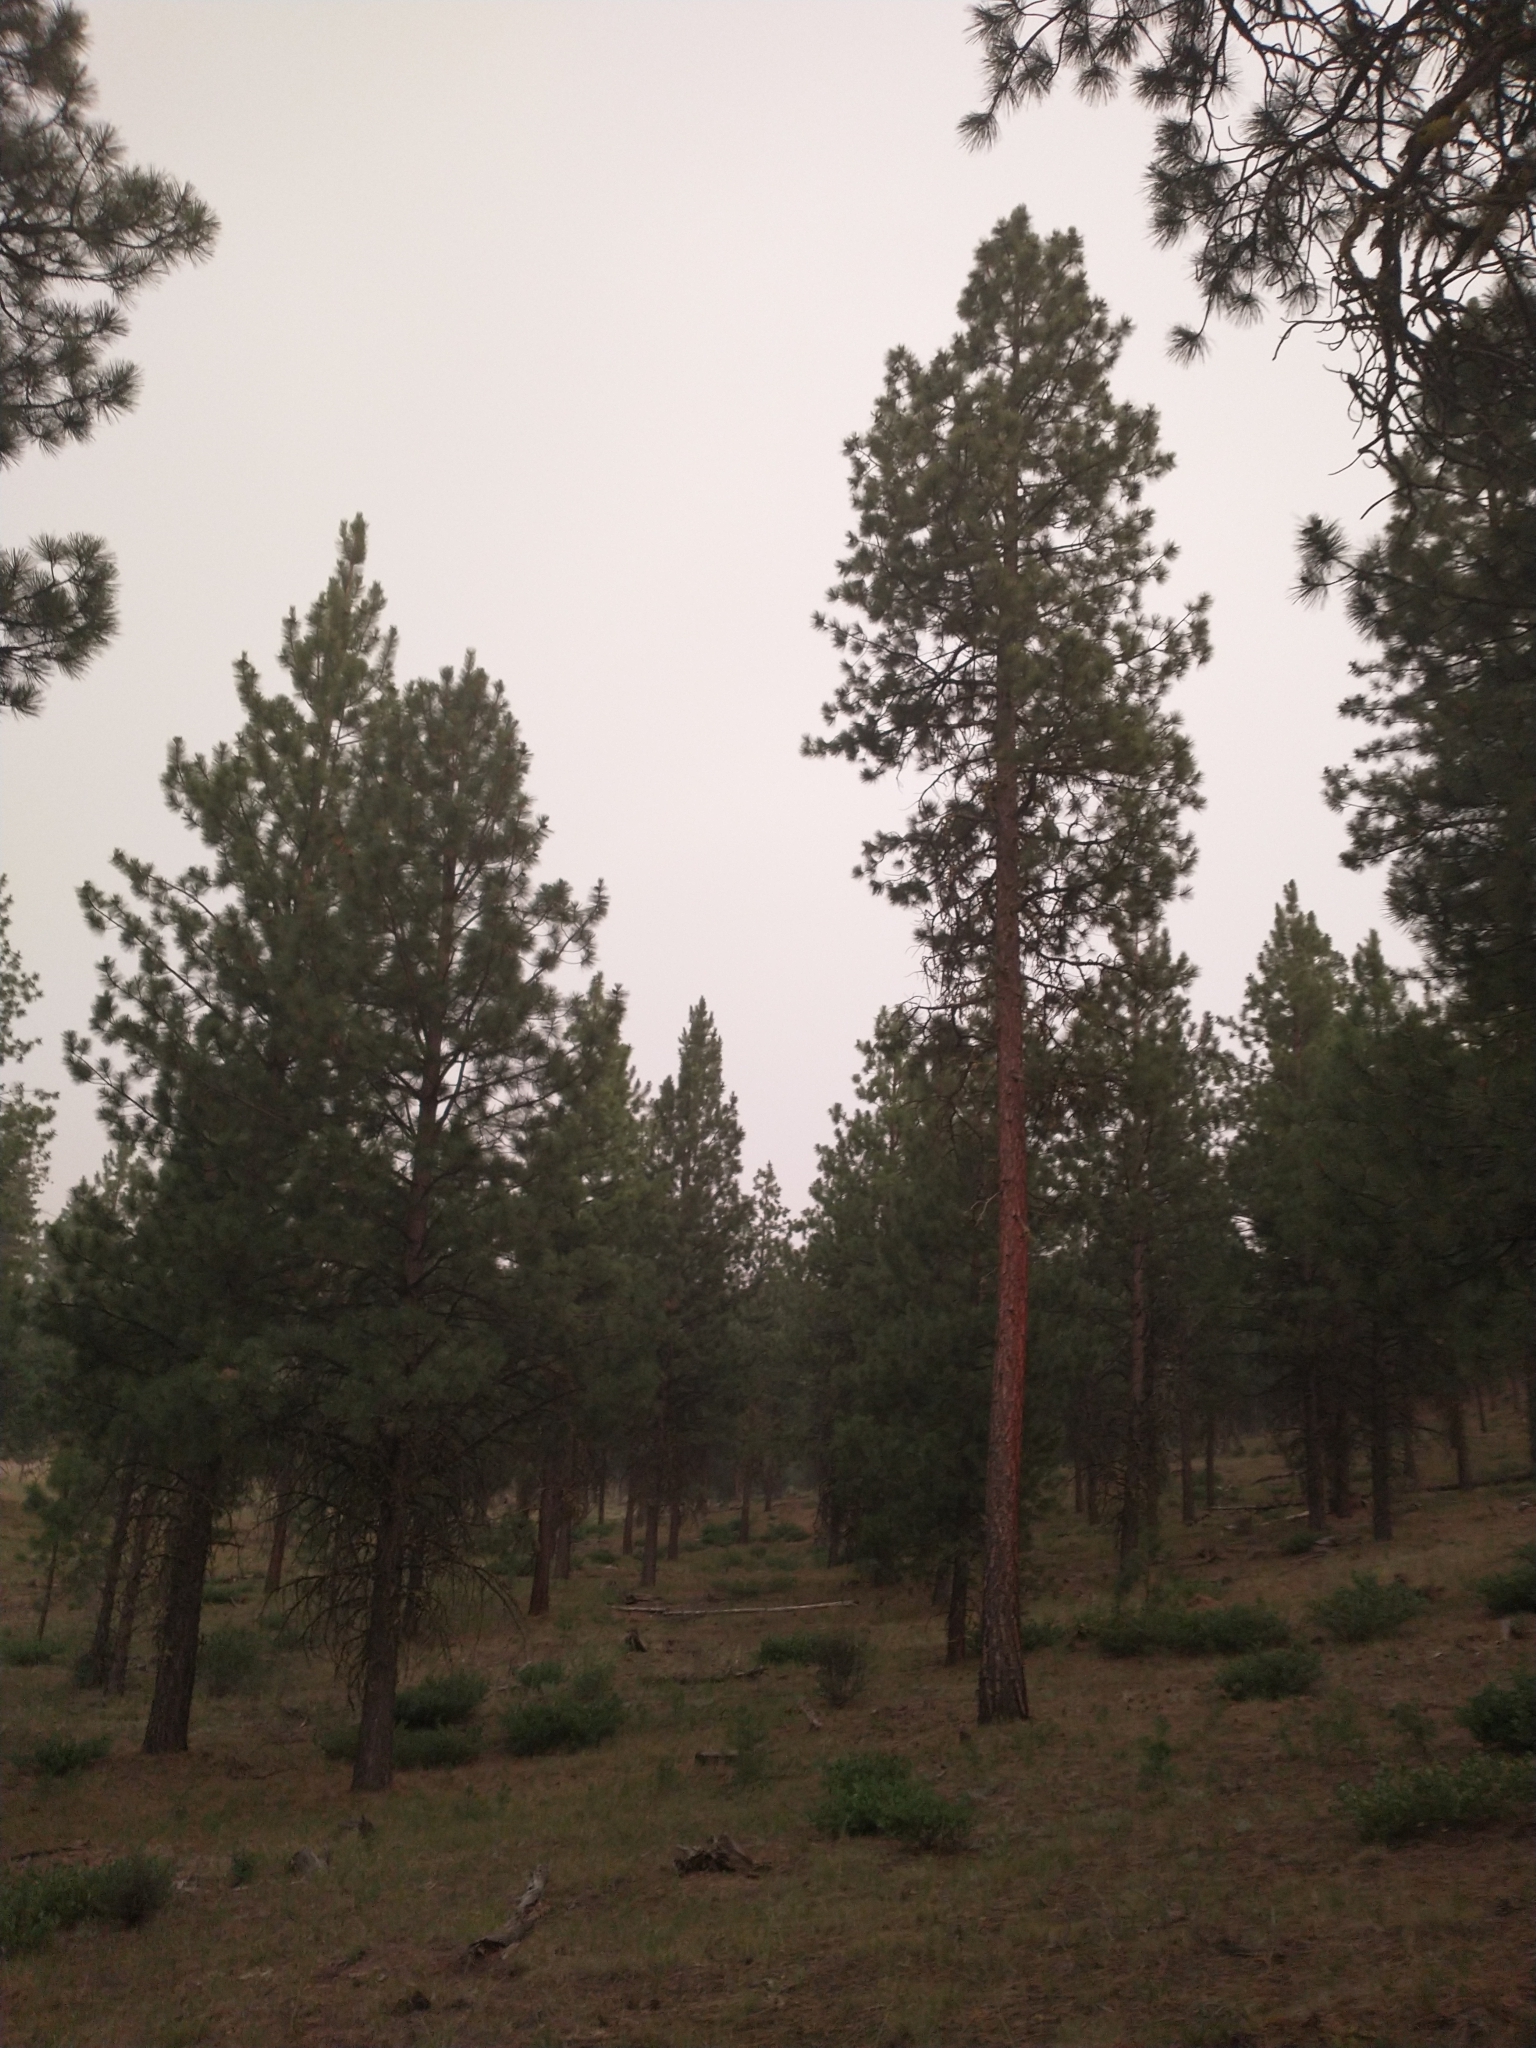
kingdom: Plantae
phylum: Tracheophyta
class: Pinopsida
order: Pinales
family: Pinaceae
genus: Pinus
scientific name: Pinus ponderosa
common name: Western yellow-pine
